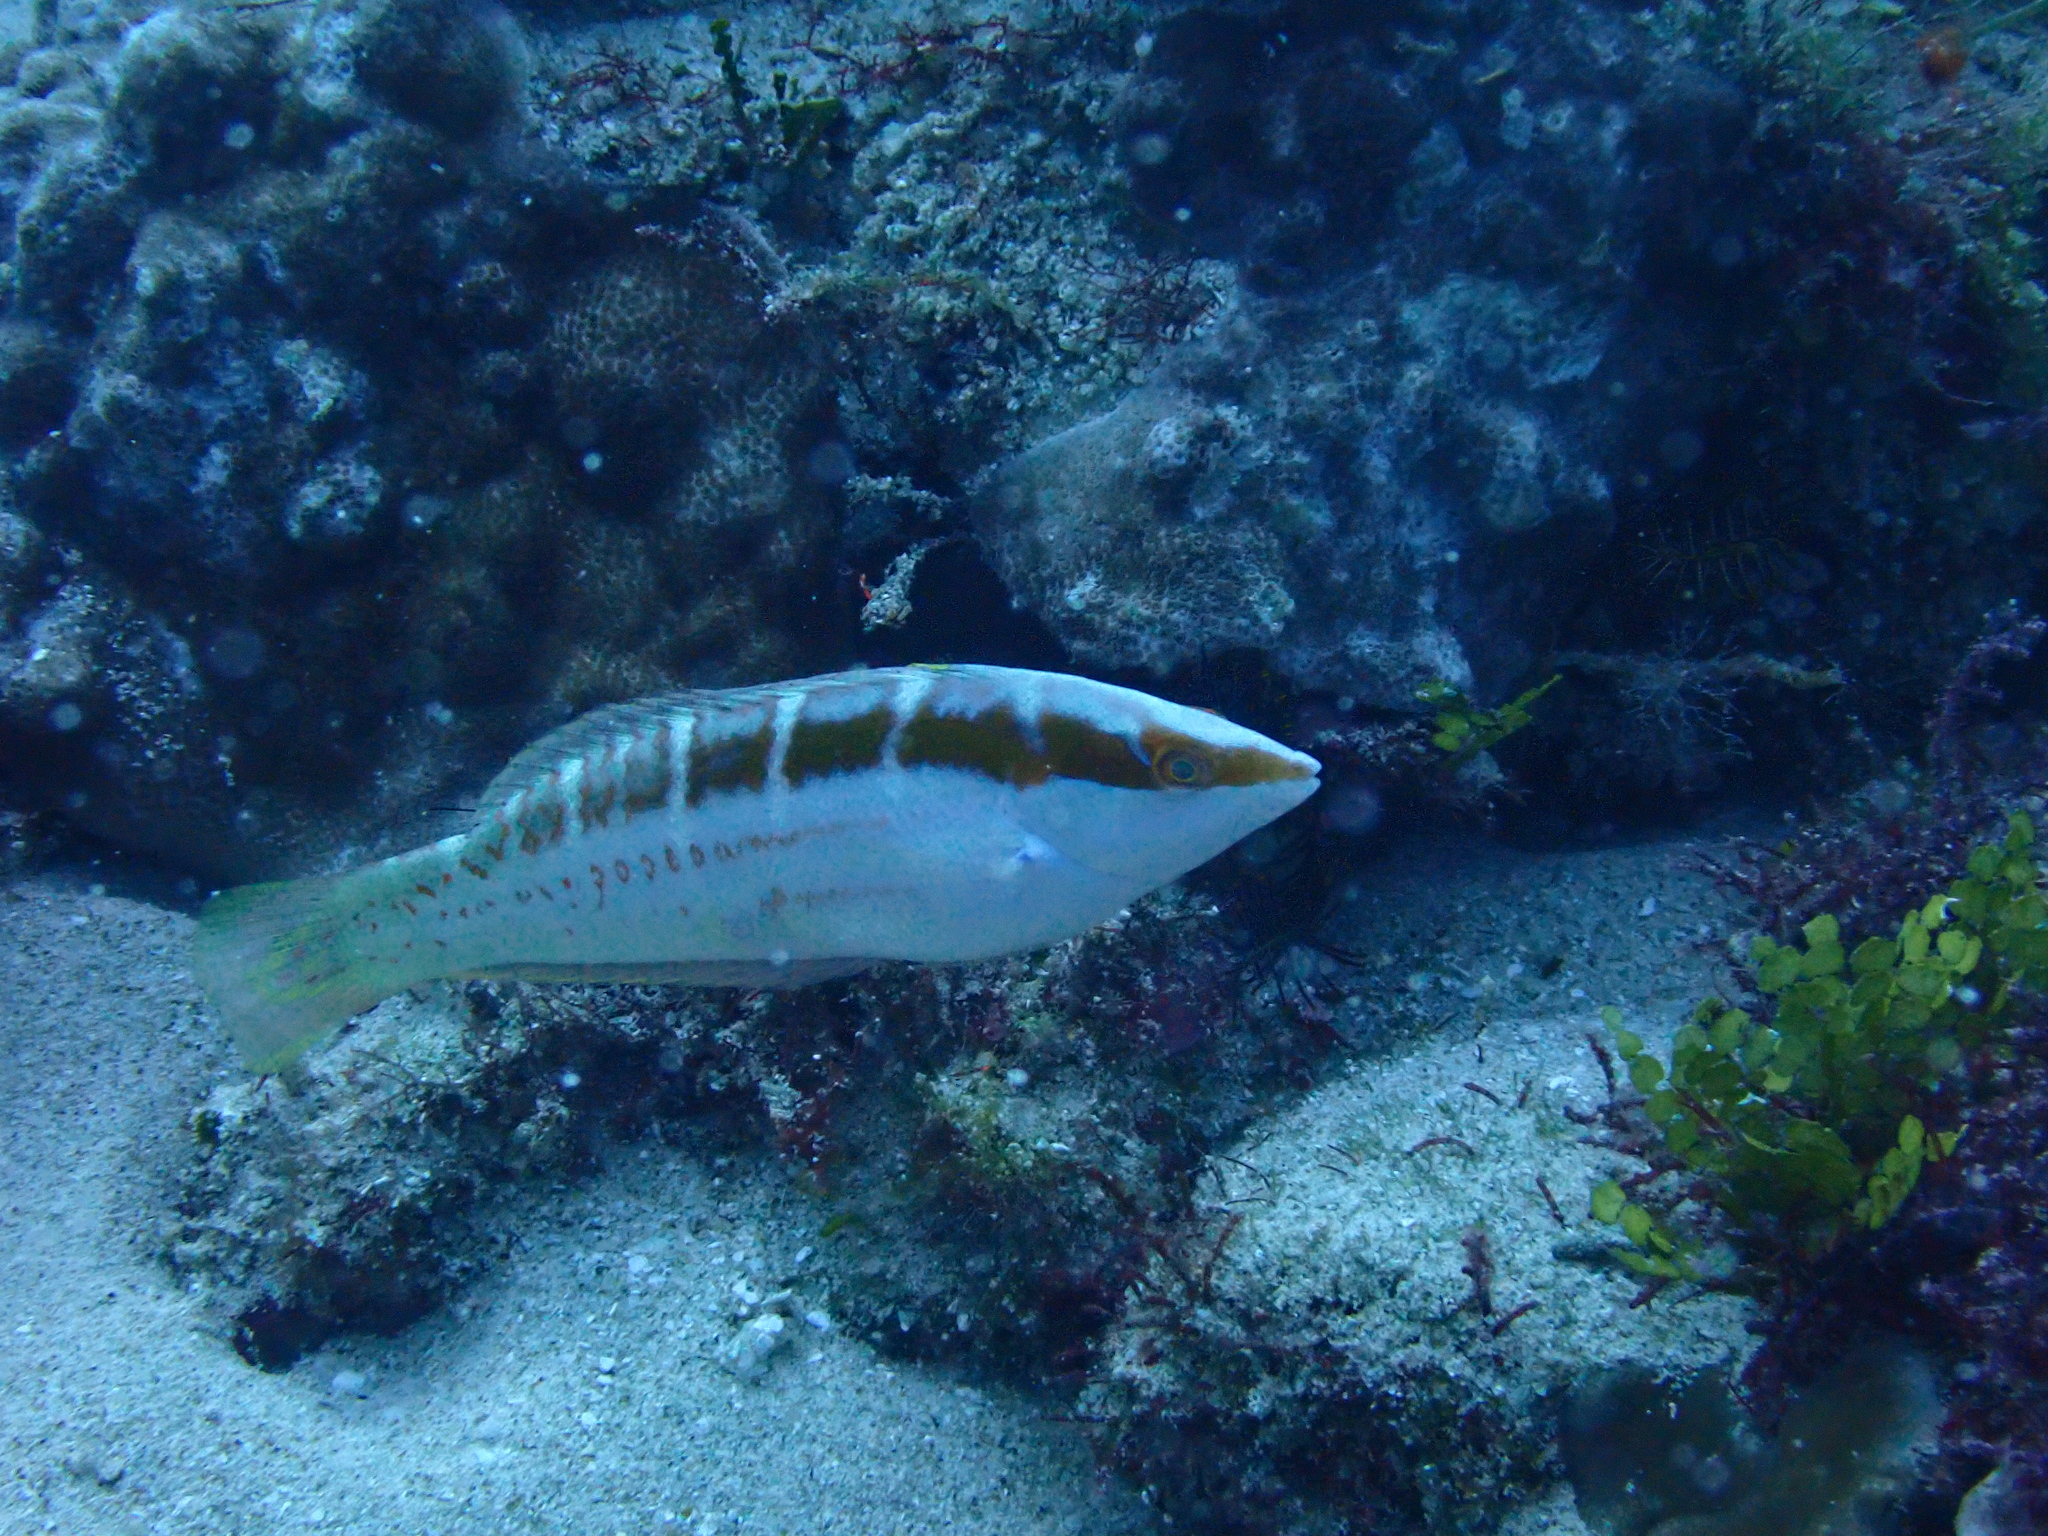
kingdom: Animalia
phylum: Chordata
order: Perciformes
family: Labridae
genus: Coris
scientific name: Coris dorsomacula
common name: Pale-barred coris
